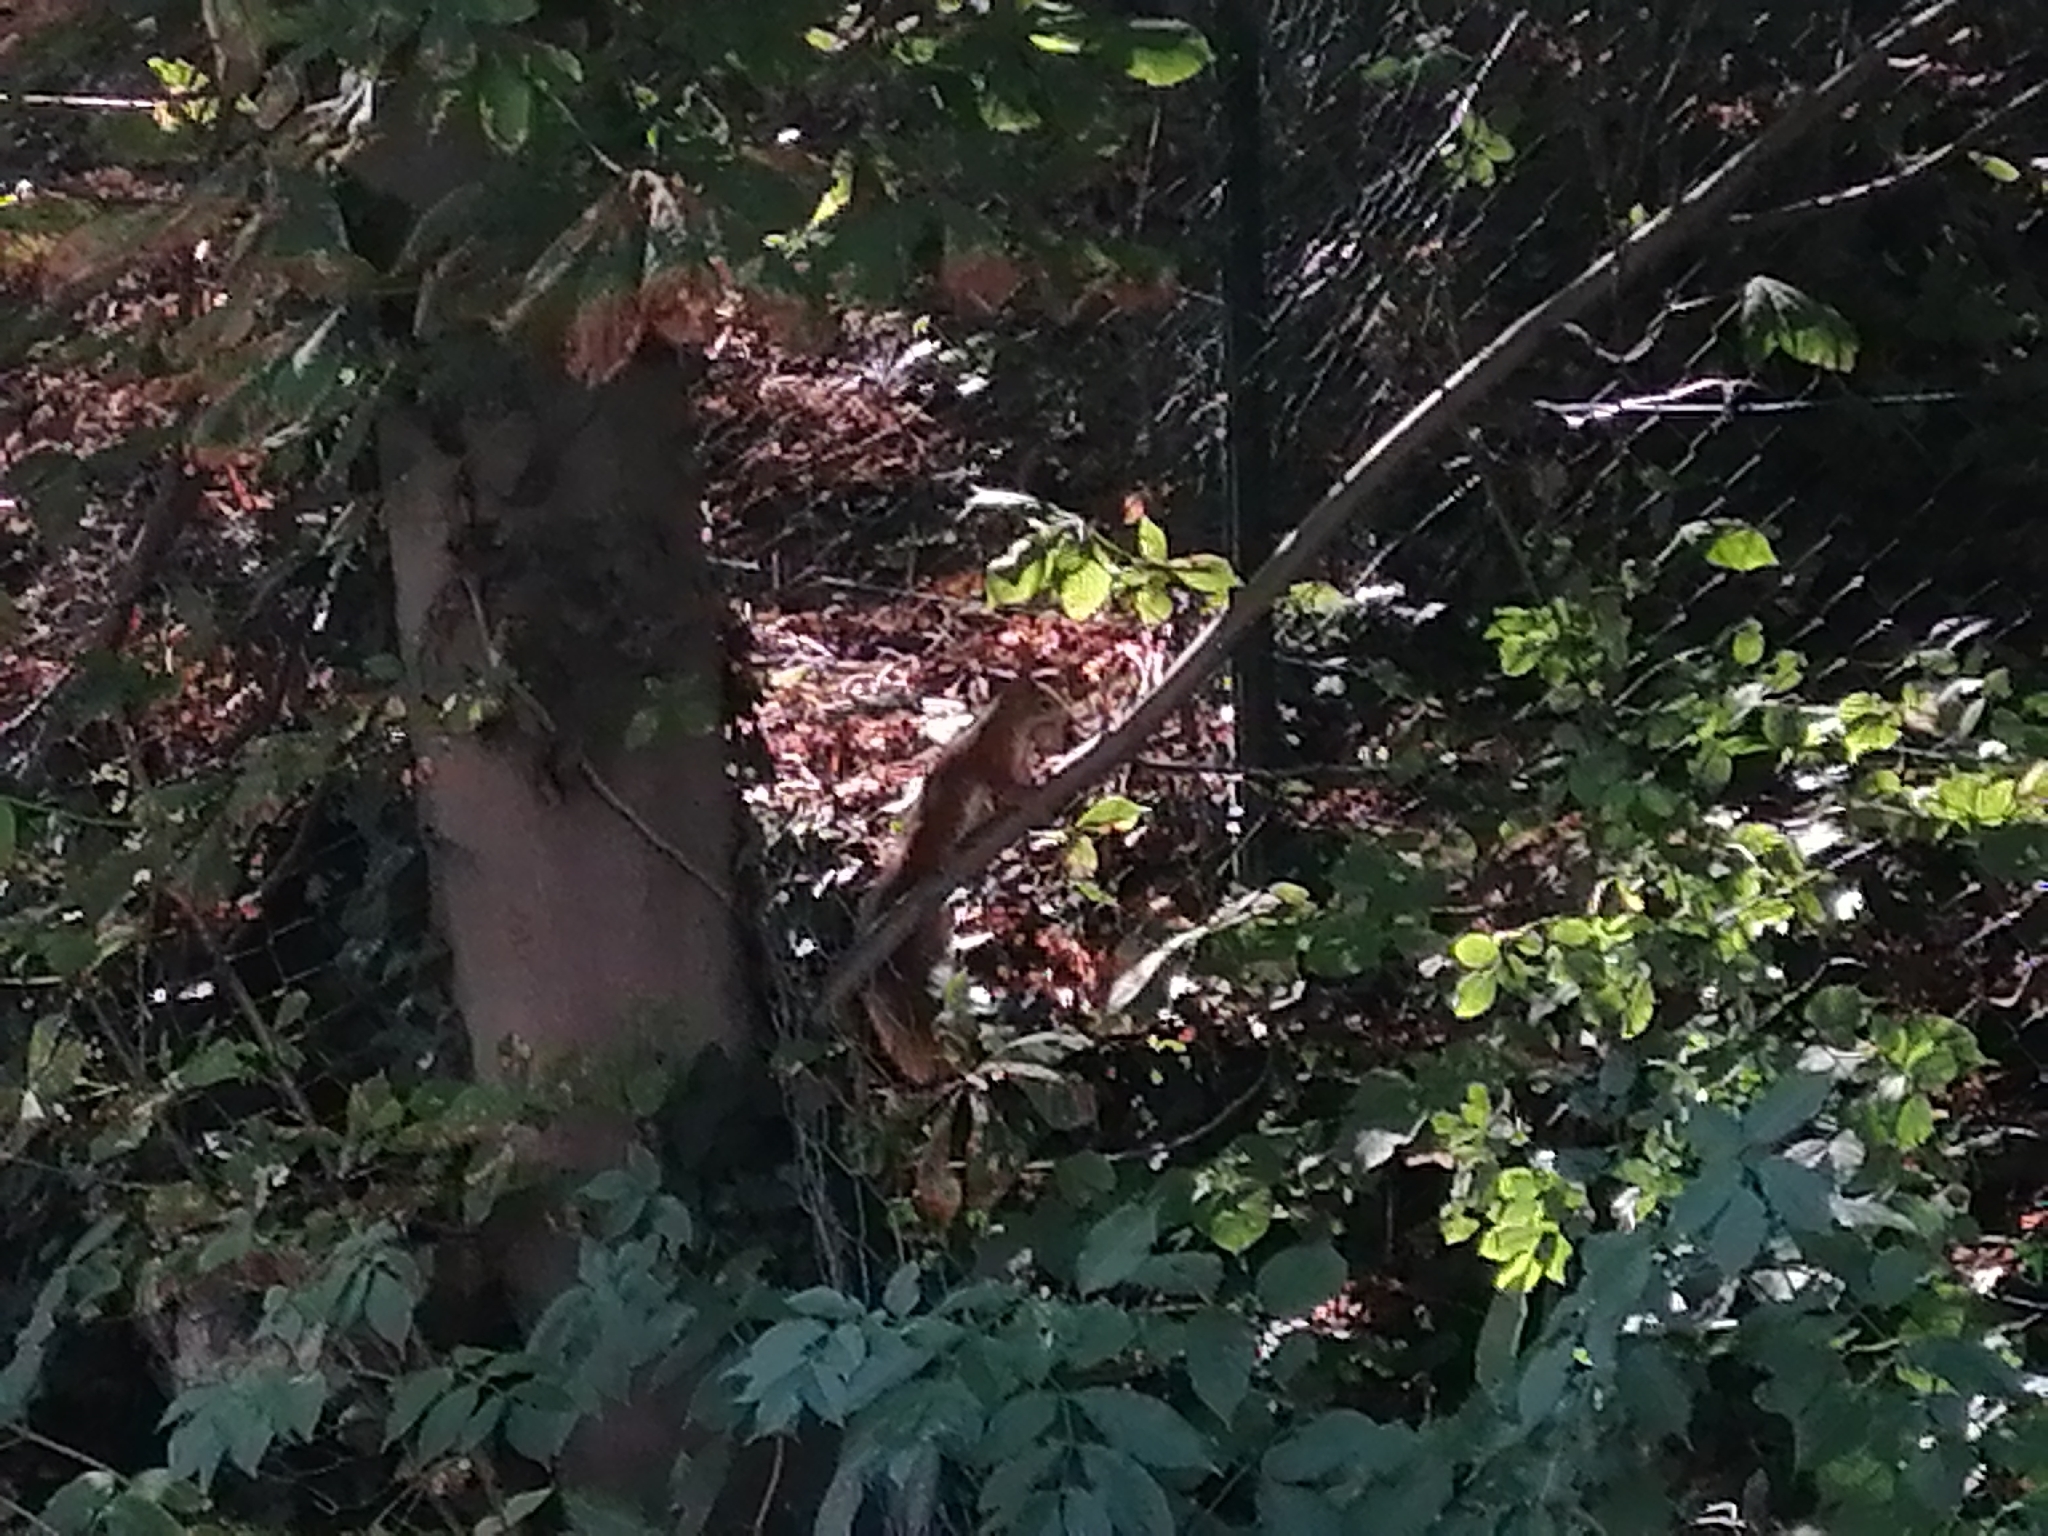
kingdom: Animalia
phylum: Chordata
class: Mammalia
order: Rodentia
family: Sciuridae
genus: Sciurus
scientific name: Sciurus vulgaris
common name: Eurasian red squirrel
